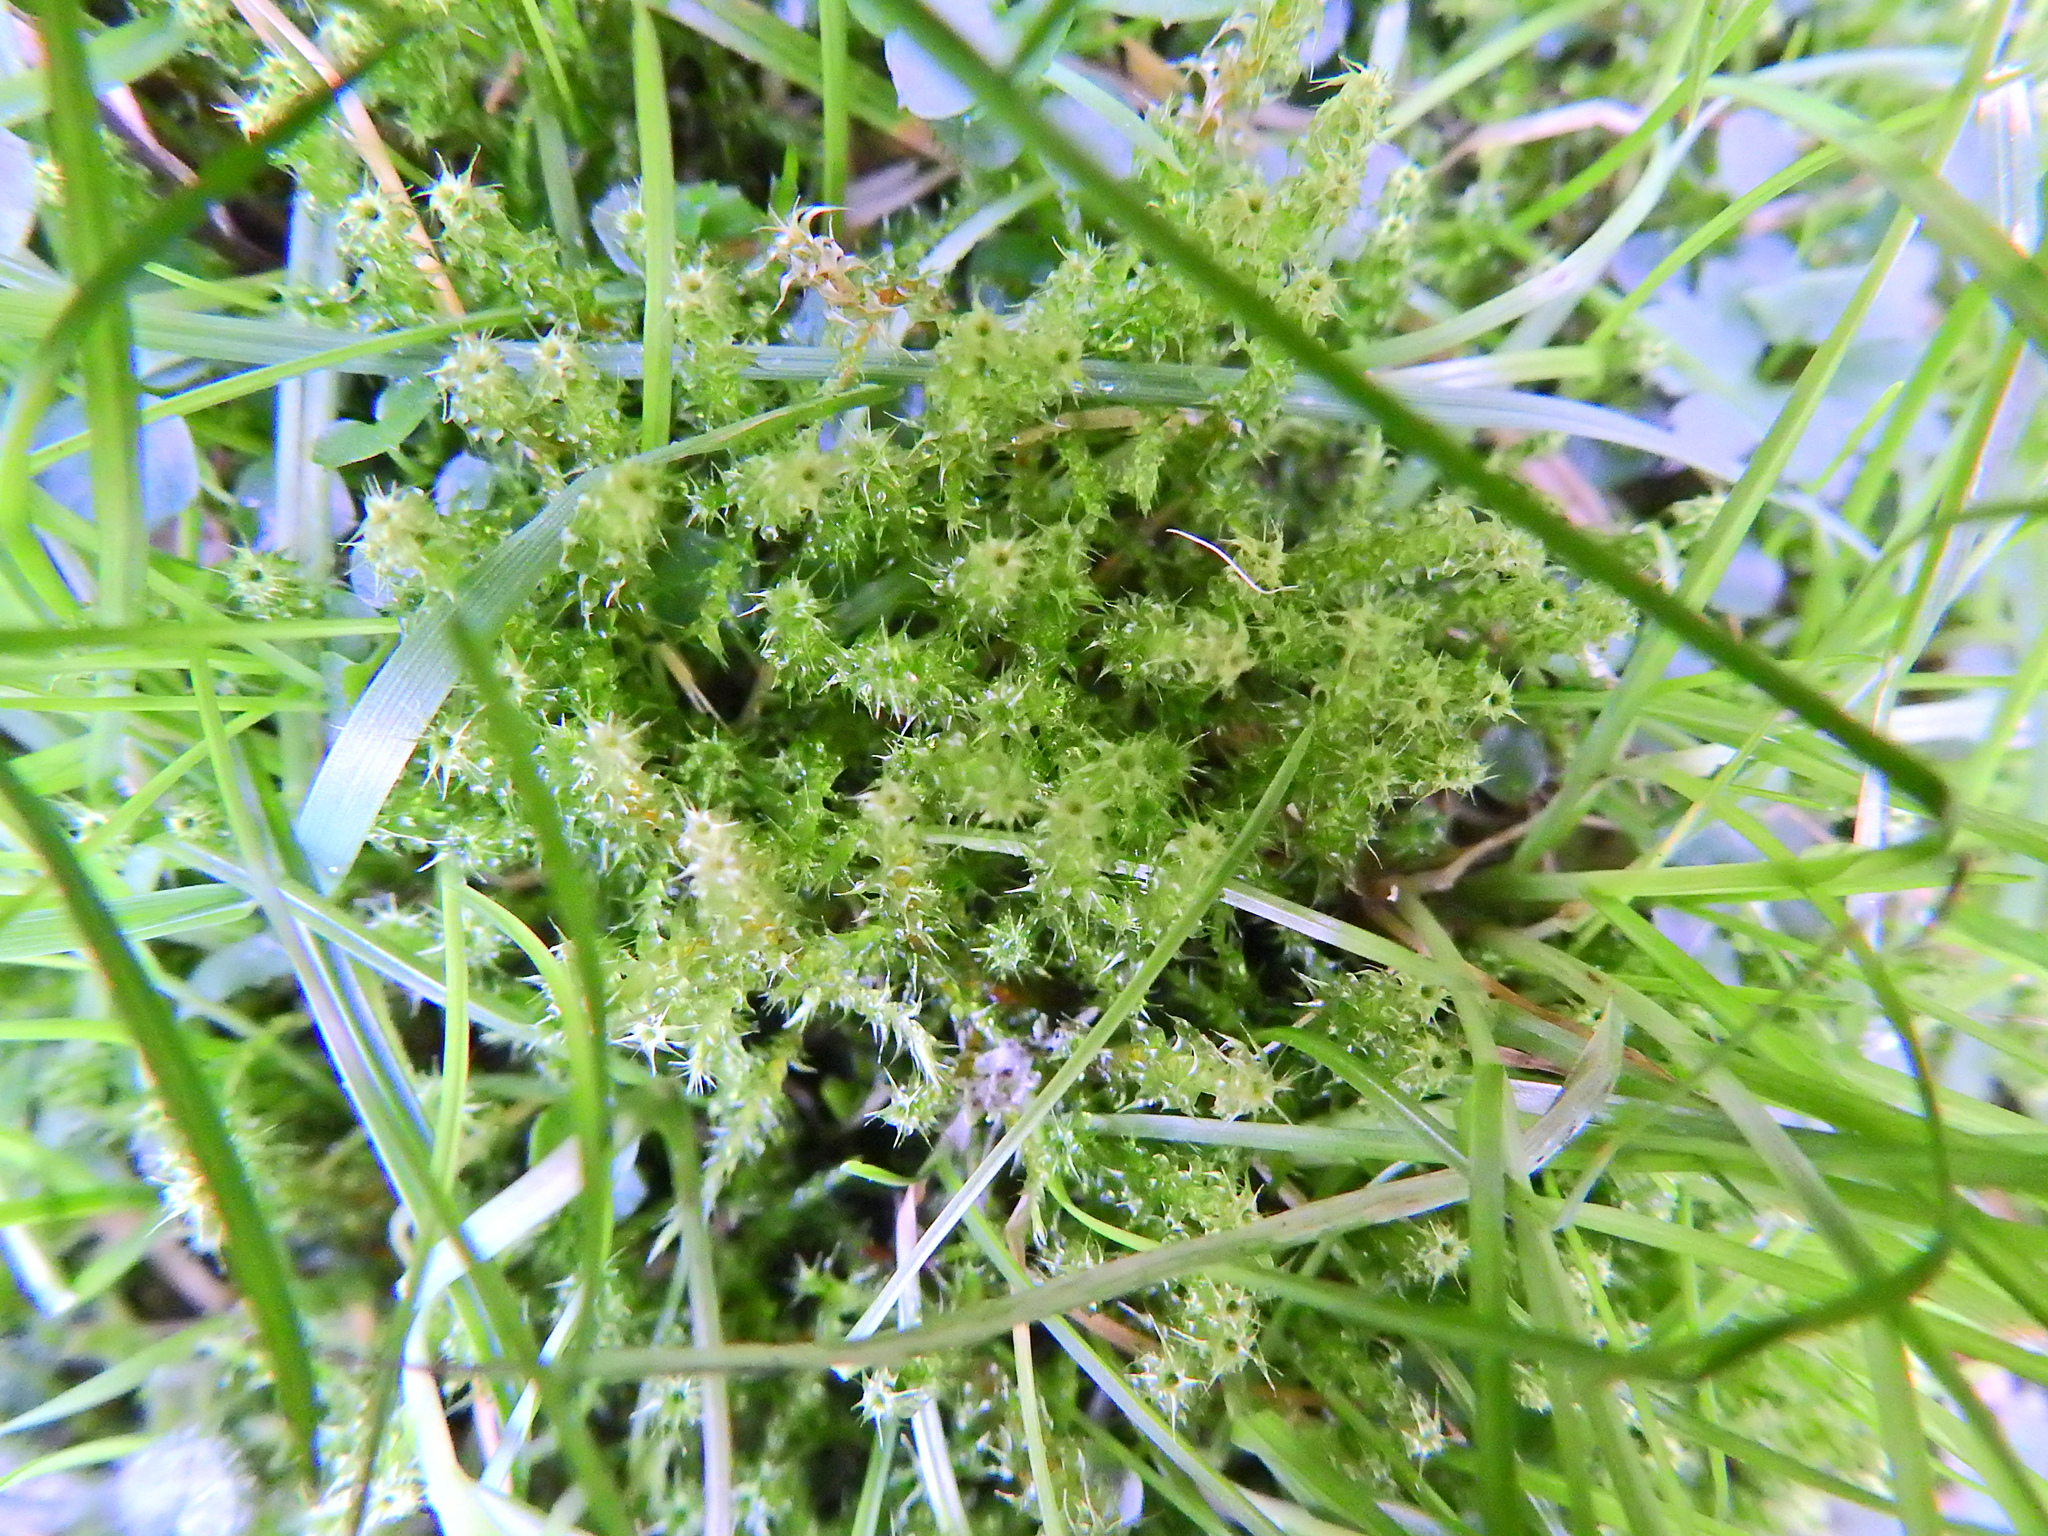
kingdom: Plantae
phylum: Bryophyta
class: Bryopsida
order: Hypnales
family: Hylocomiaceae
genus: Rhytidiadelphus
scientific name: Rhytidiadelphus squarrosus
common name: Springy turf-moss
